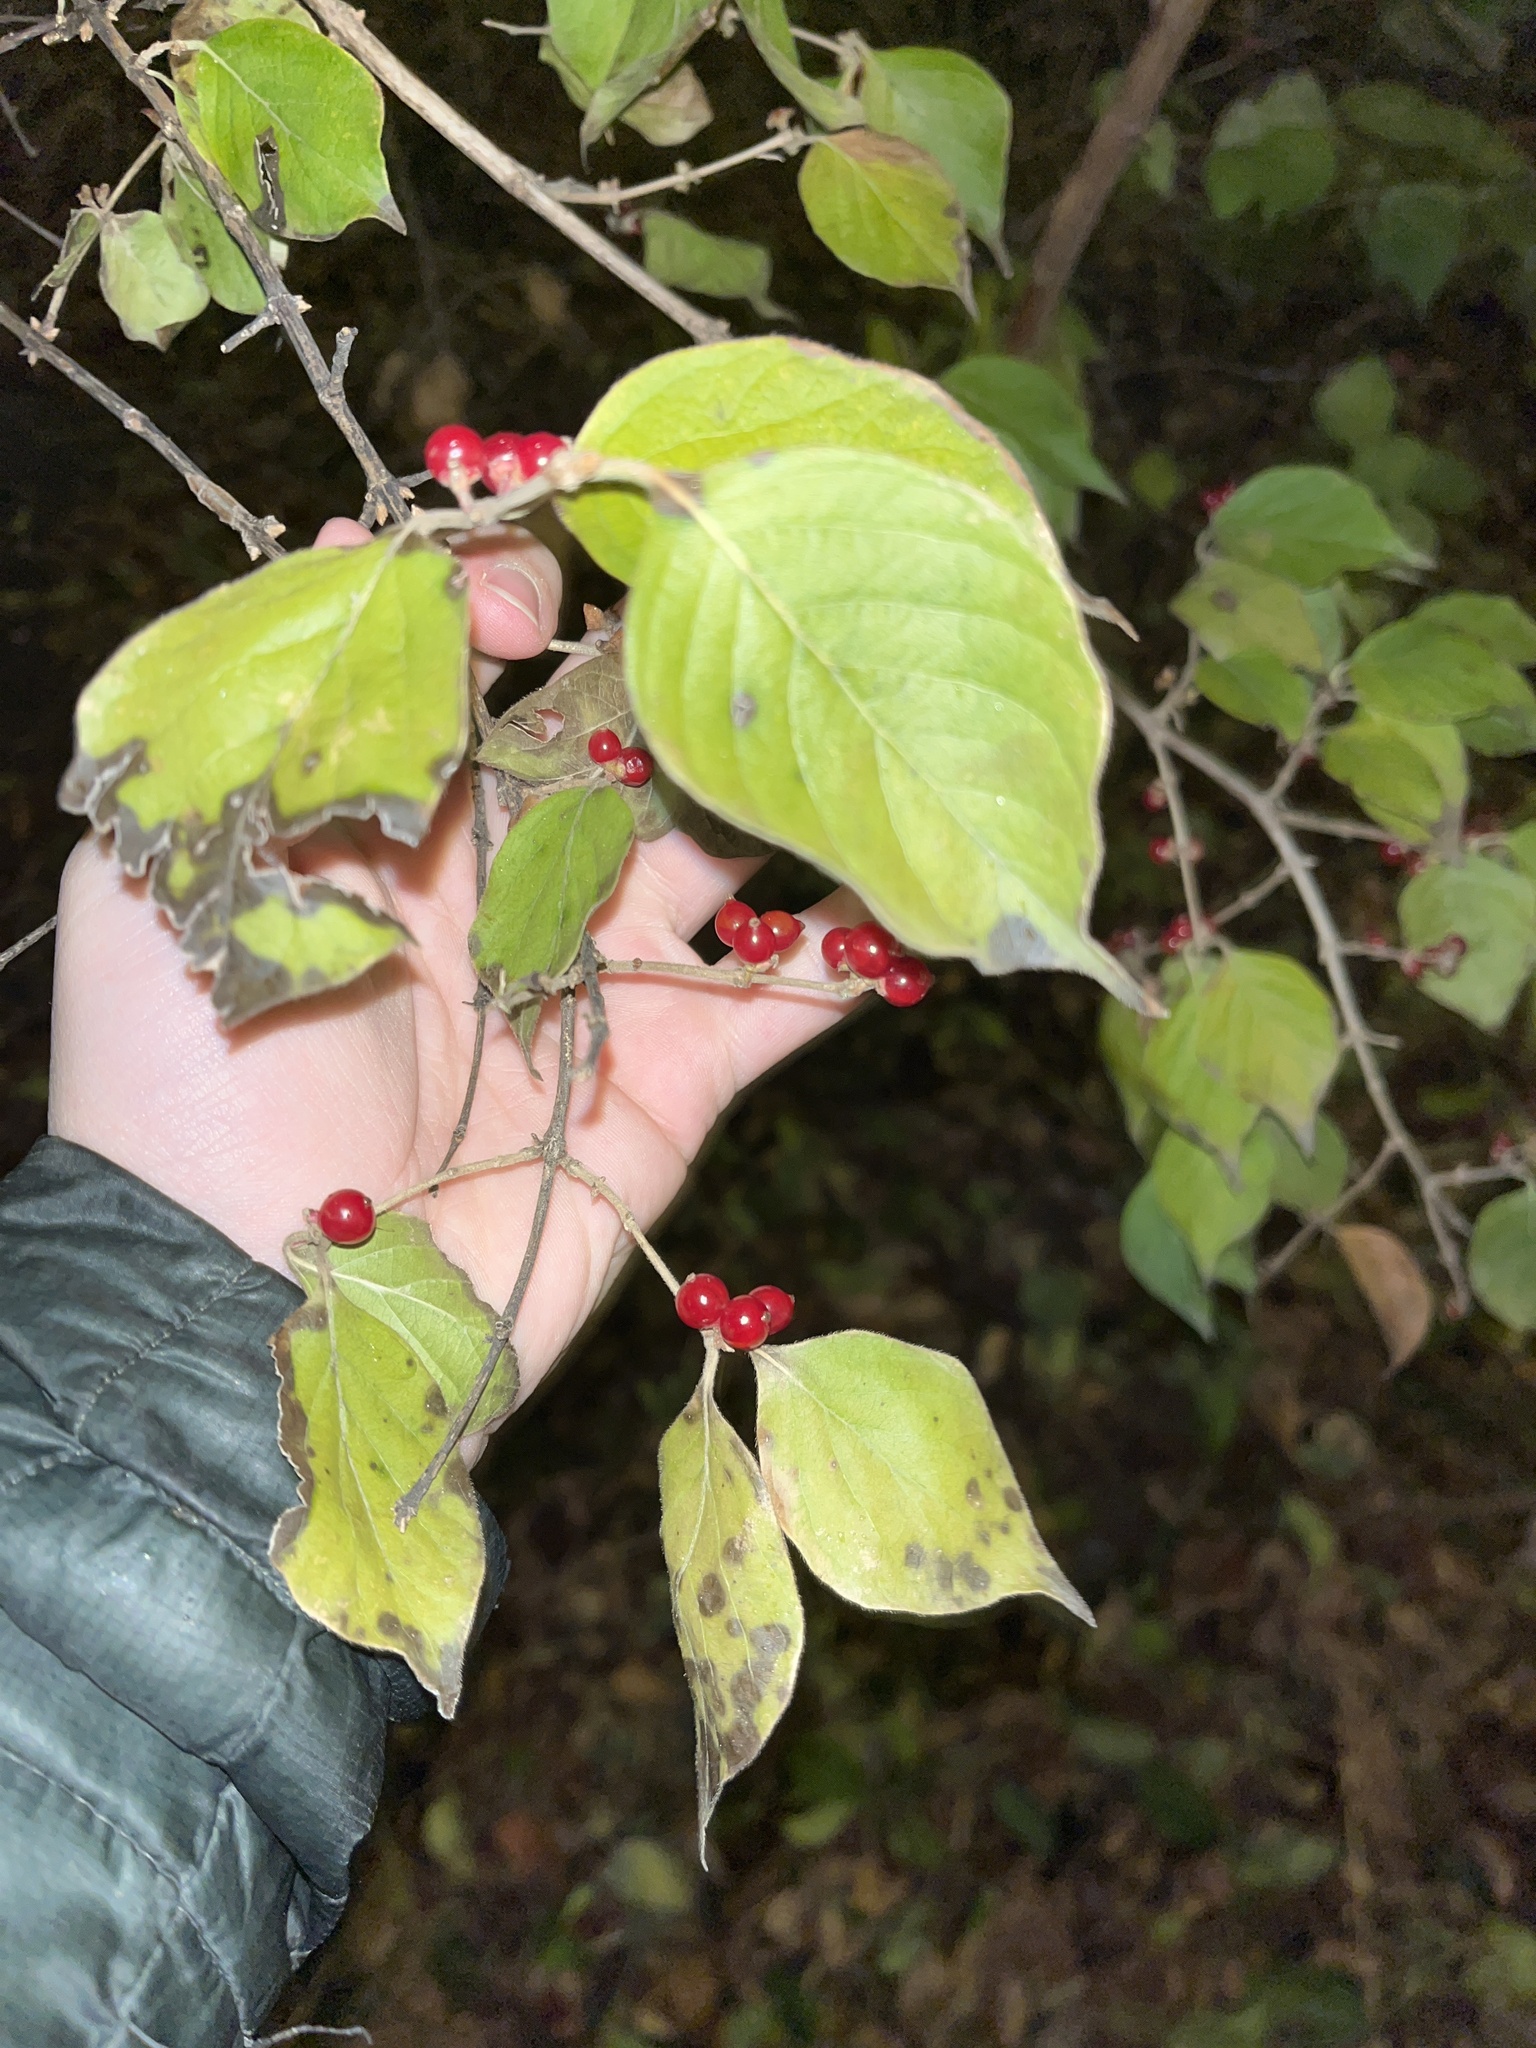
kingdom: Plantae
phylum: Tracheophyta
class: Magnoliopsida
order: Dipsacales
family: Caprifoliaceae
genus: Lonicera
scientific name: Lonicera maackii
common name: Amur honeysuckle
